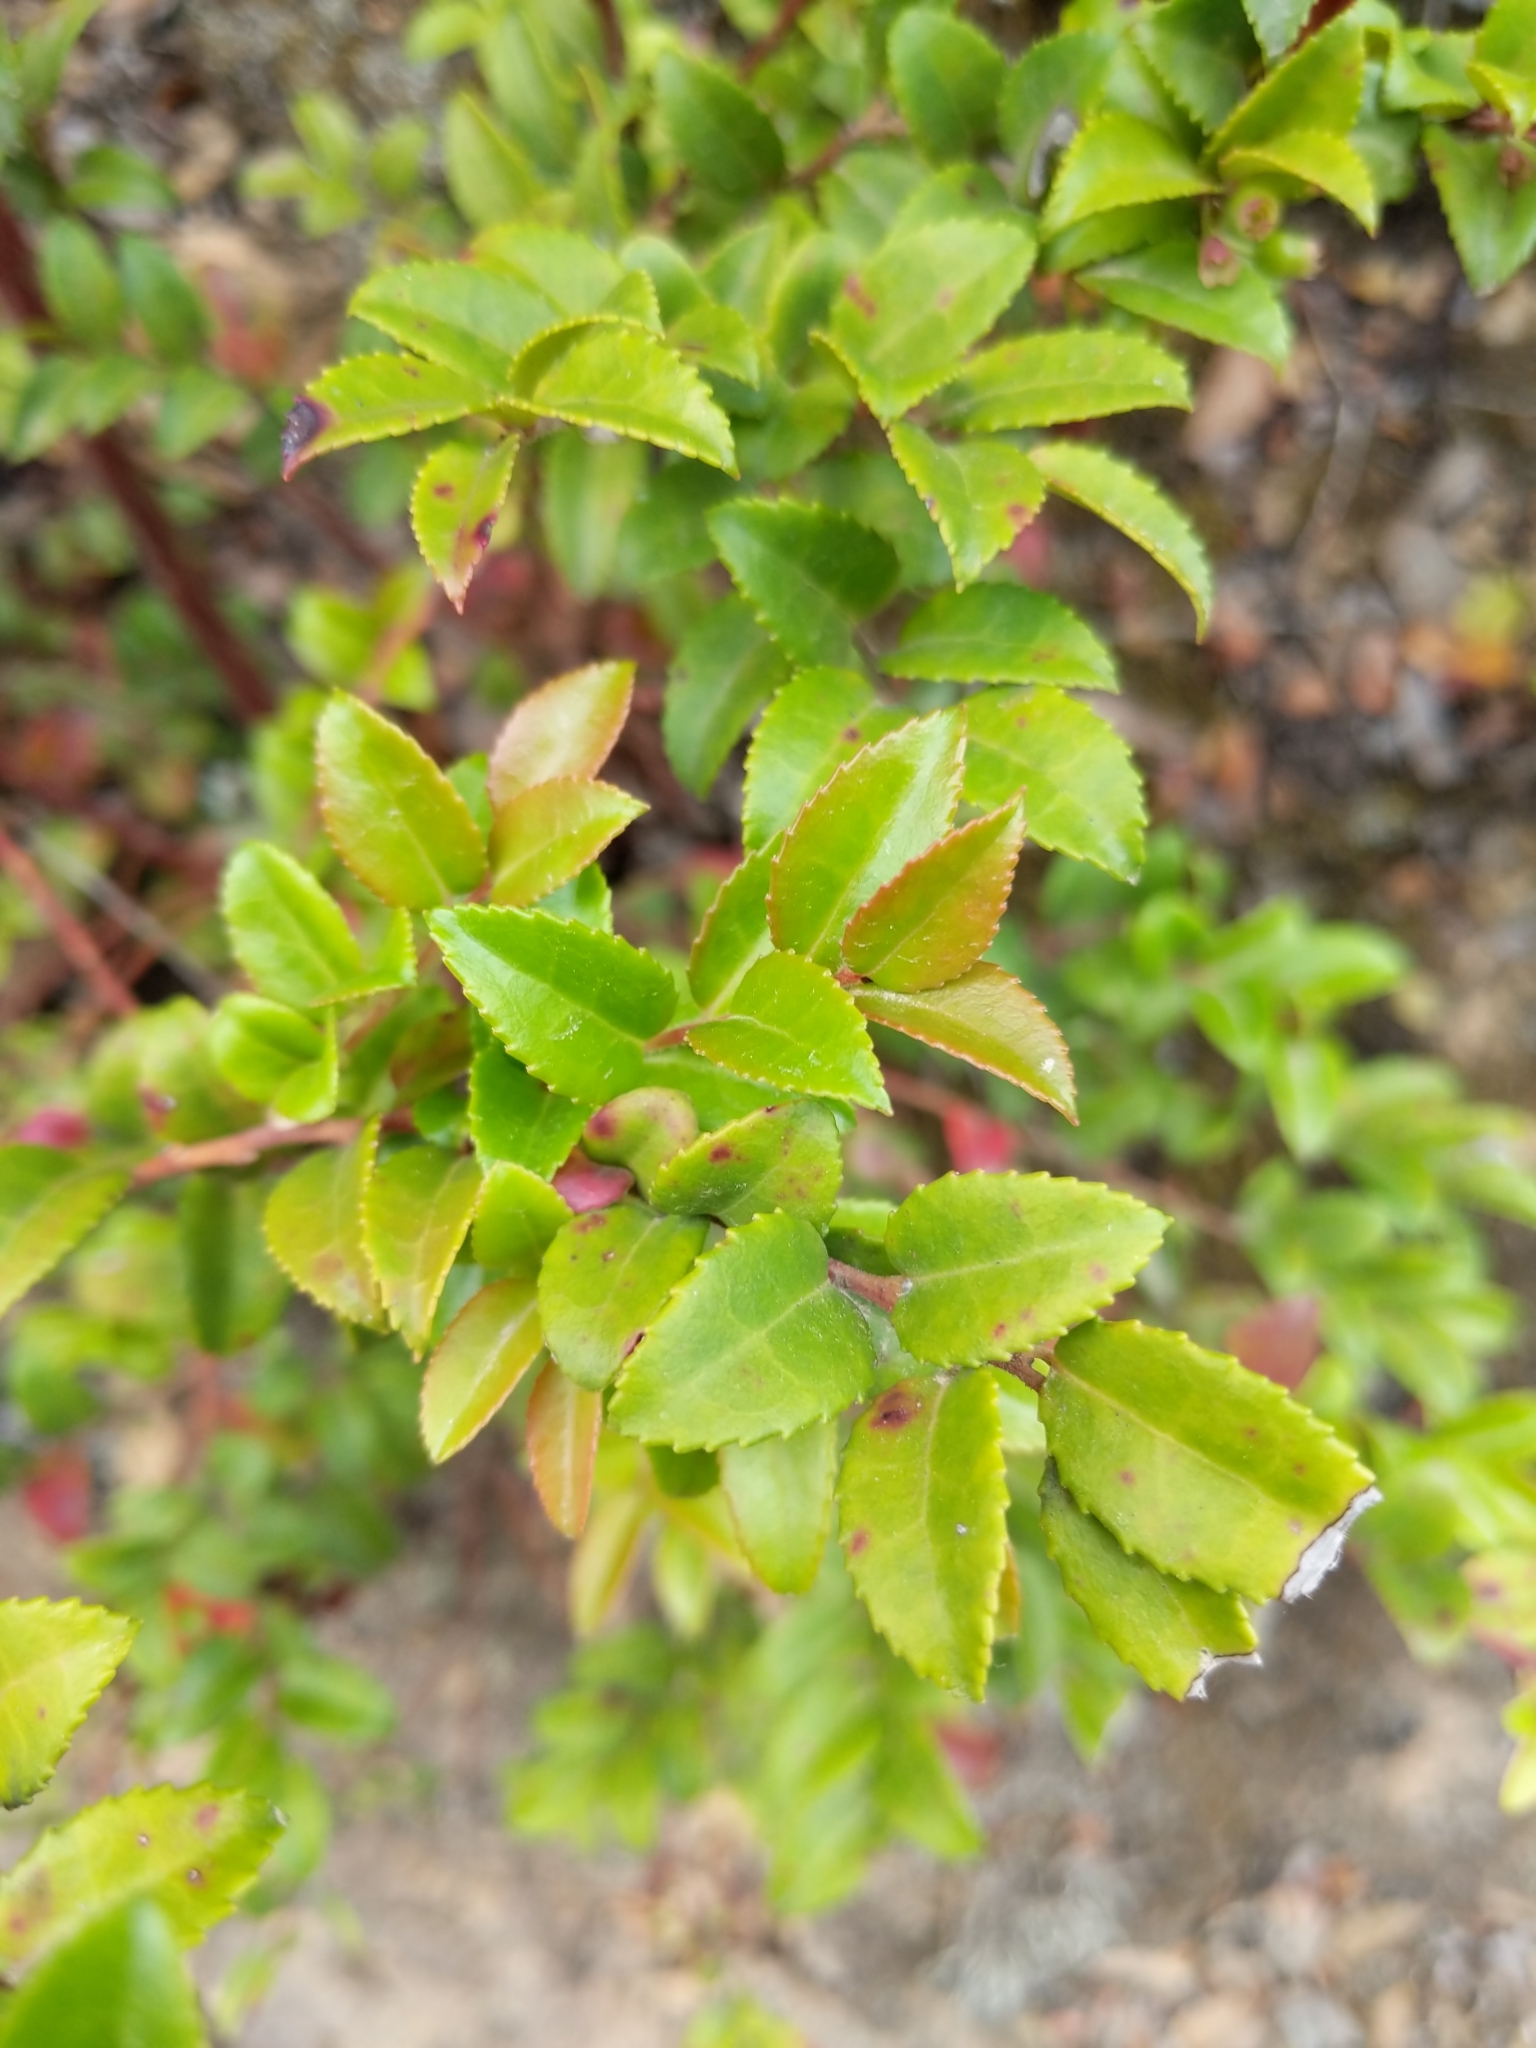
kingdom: Plantae
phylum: Tracheophyta
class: Magnoliopsida
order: Ericales
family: Ericaceae
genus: Vaccinium
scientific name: Vaccinium ovatum
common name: California-huckleberry
